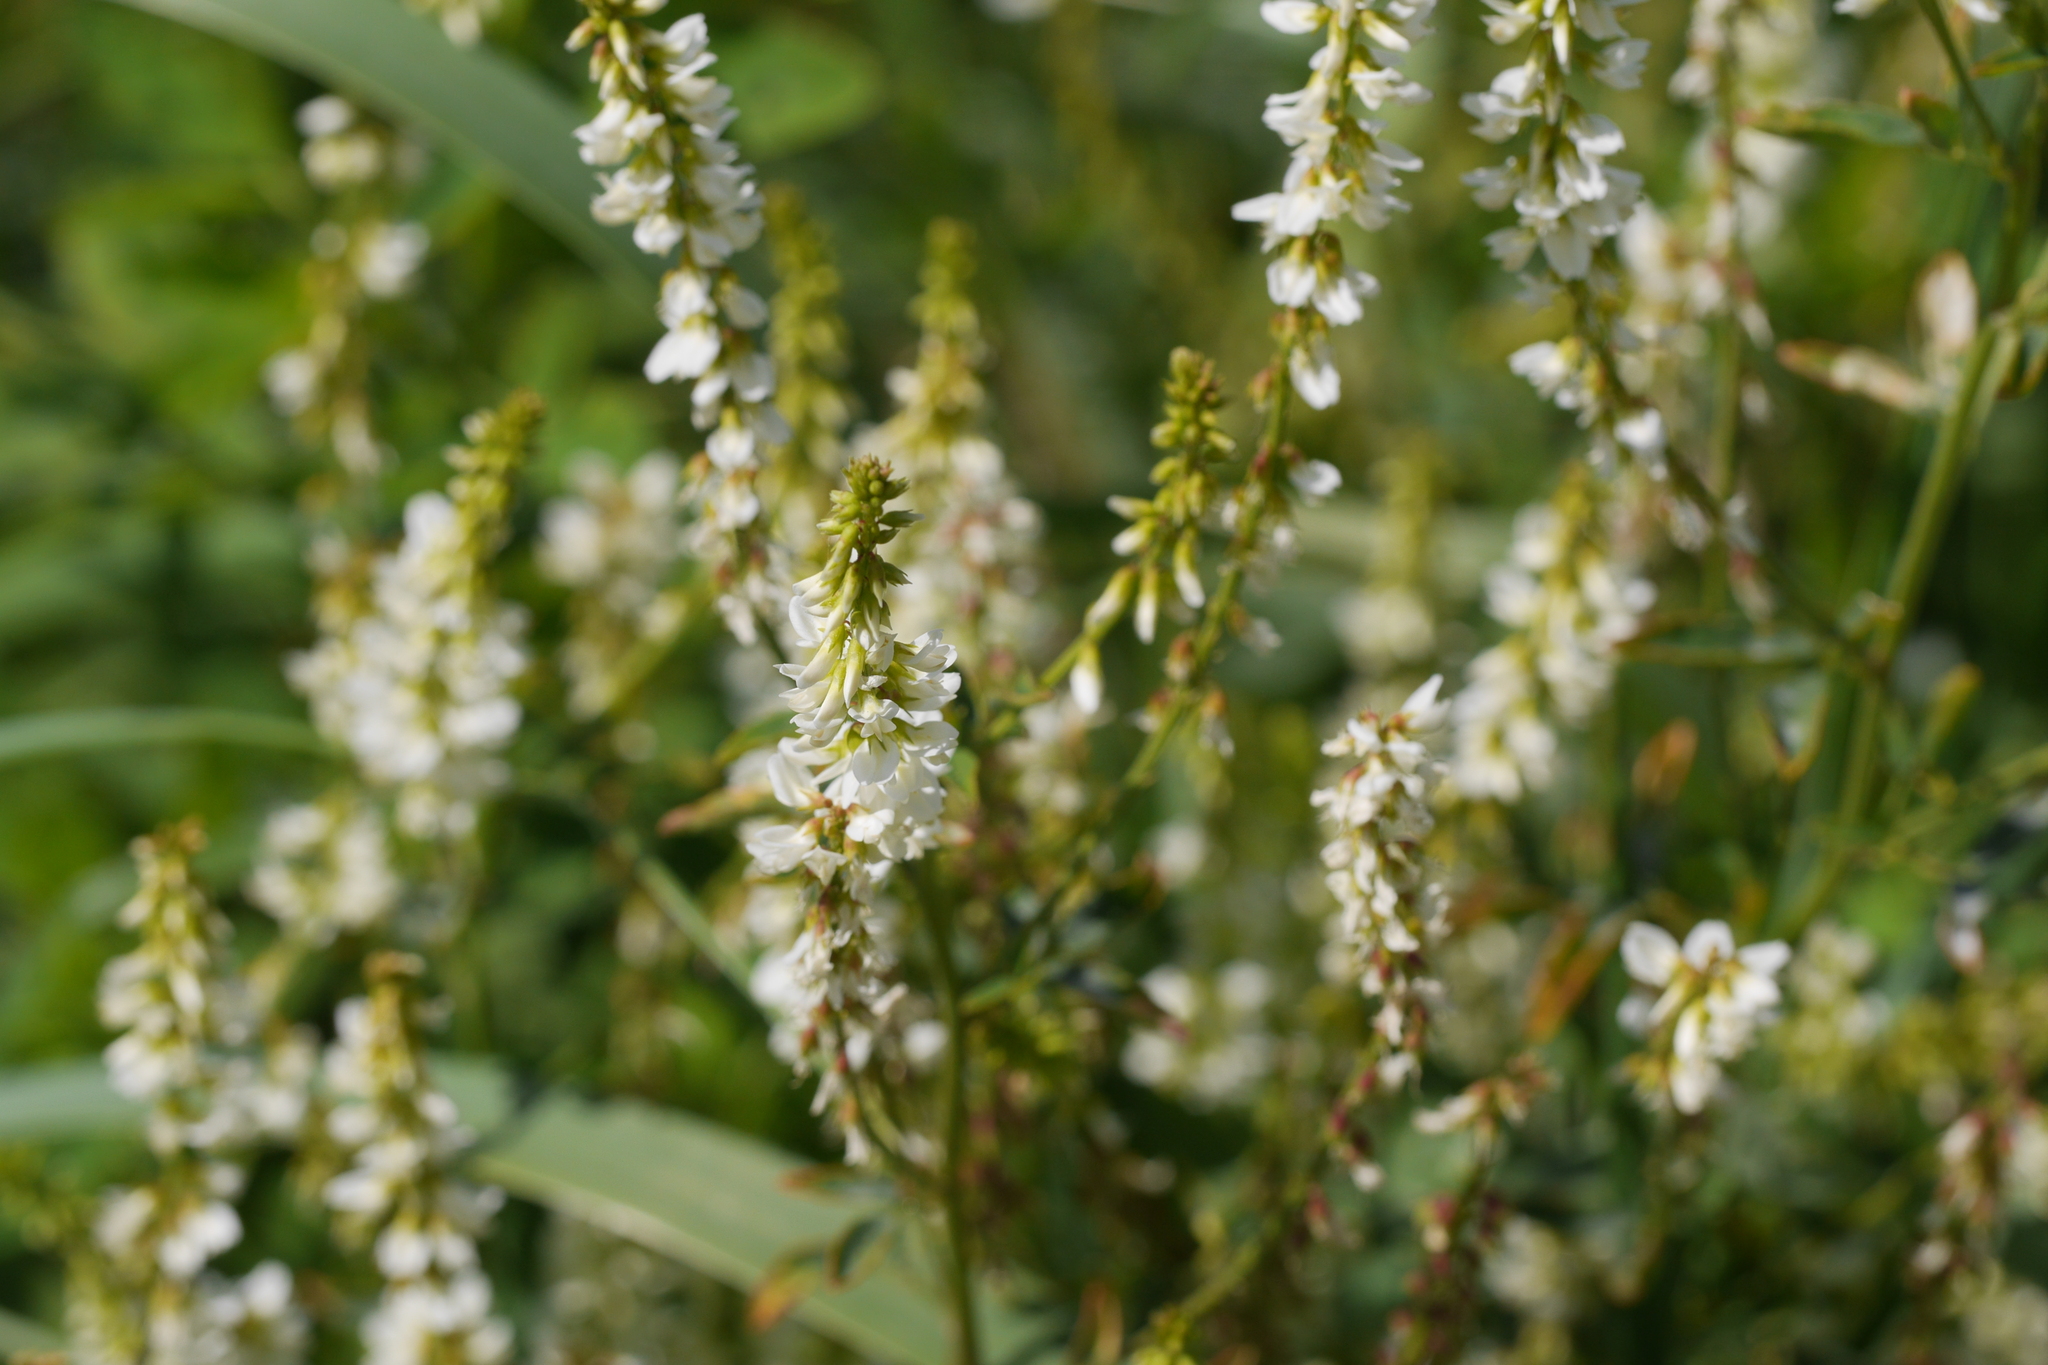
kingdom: Plantae
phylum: Tracheophyta
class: Magnoliopsida
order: Fabales
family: Fabaceae
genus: Melilotus
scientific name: Melilotus albus
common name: White melilot
